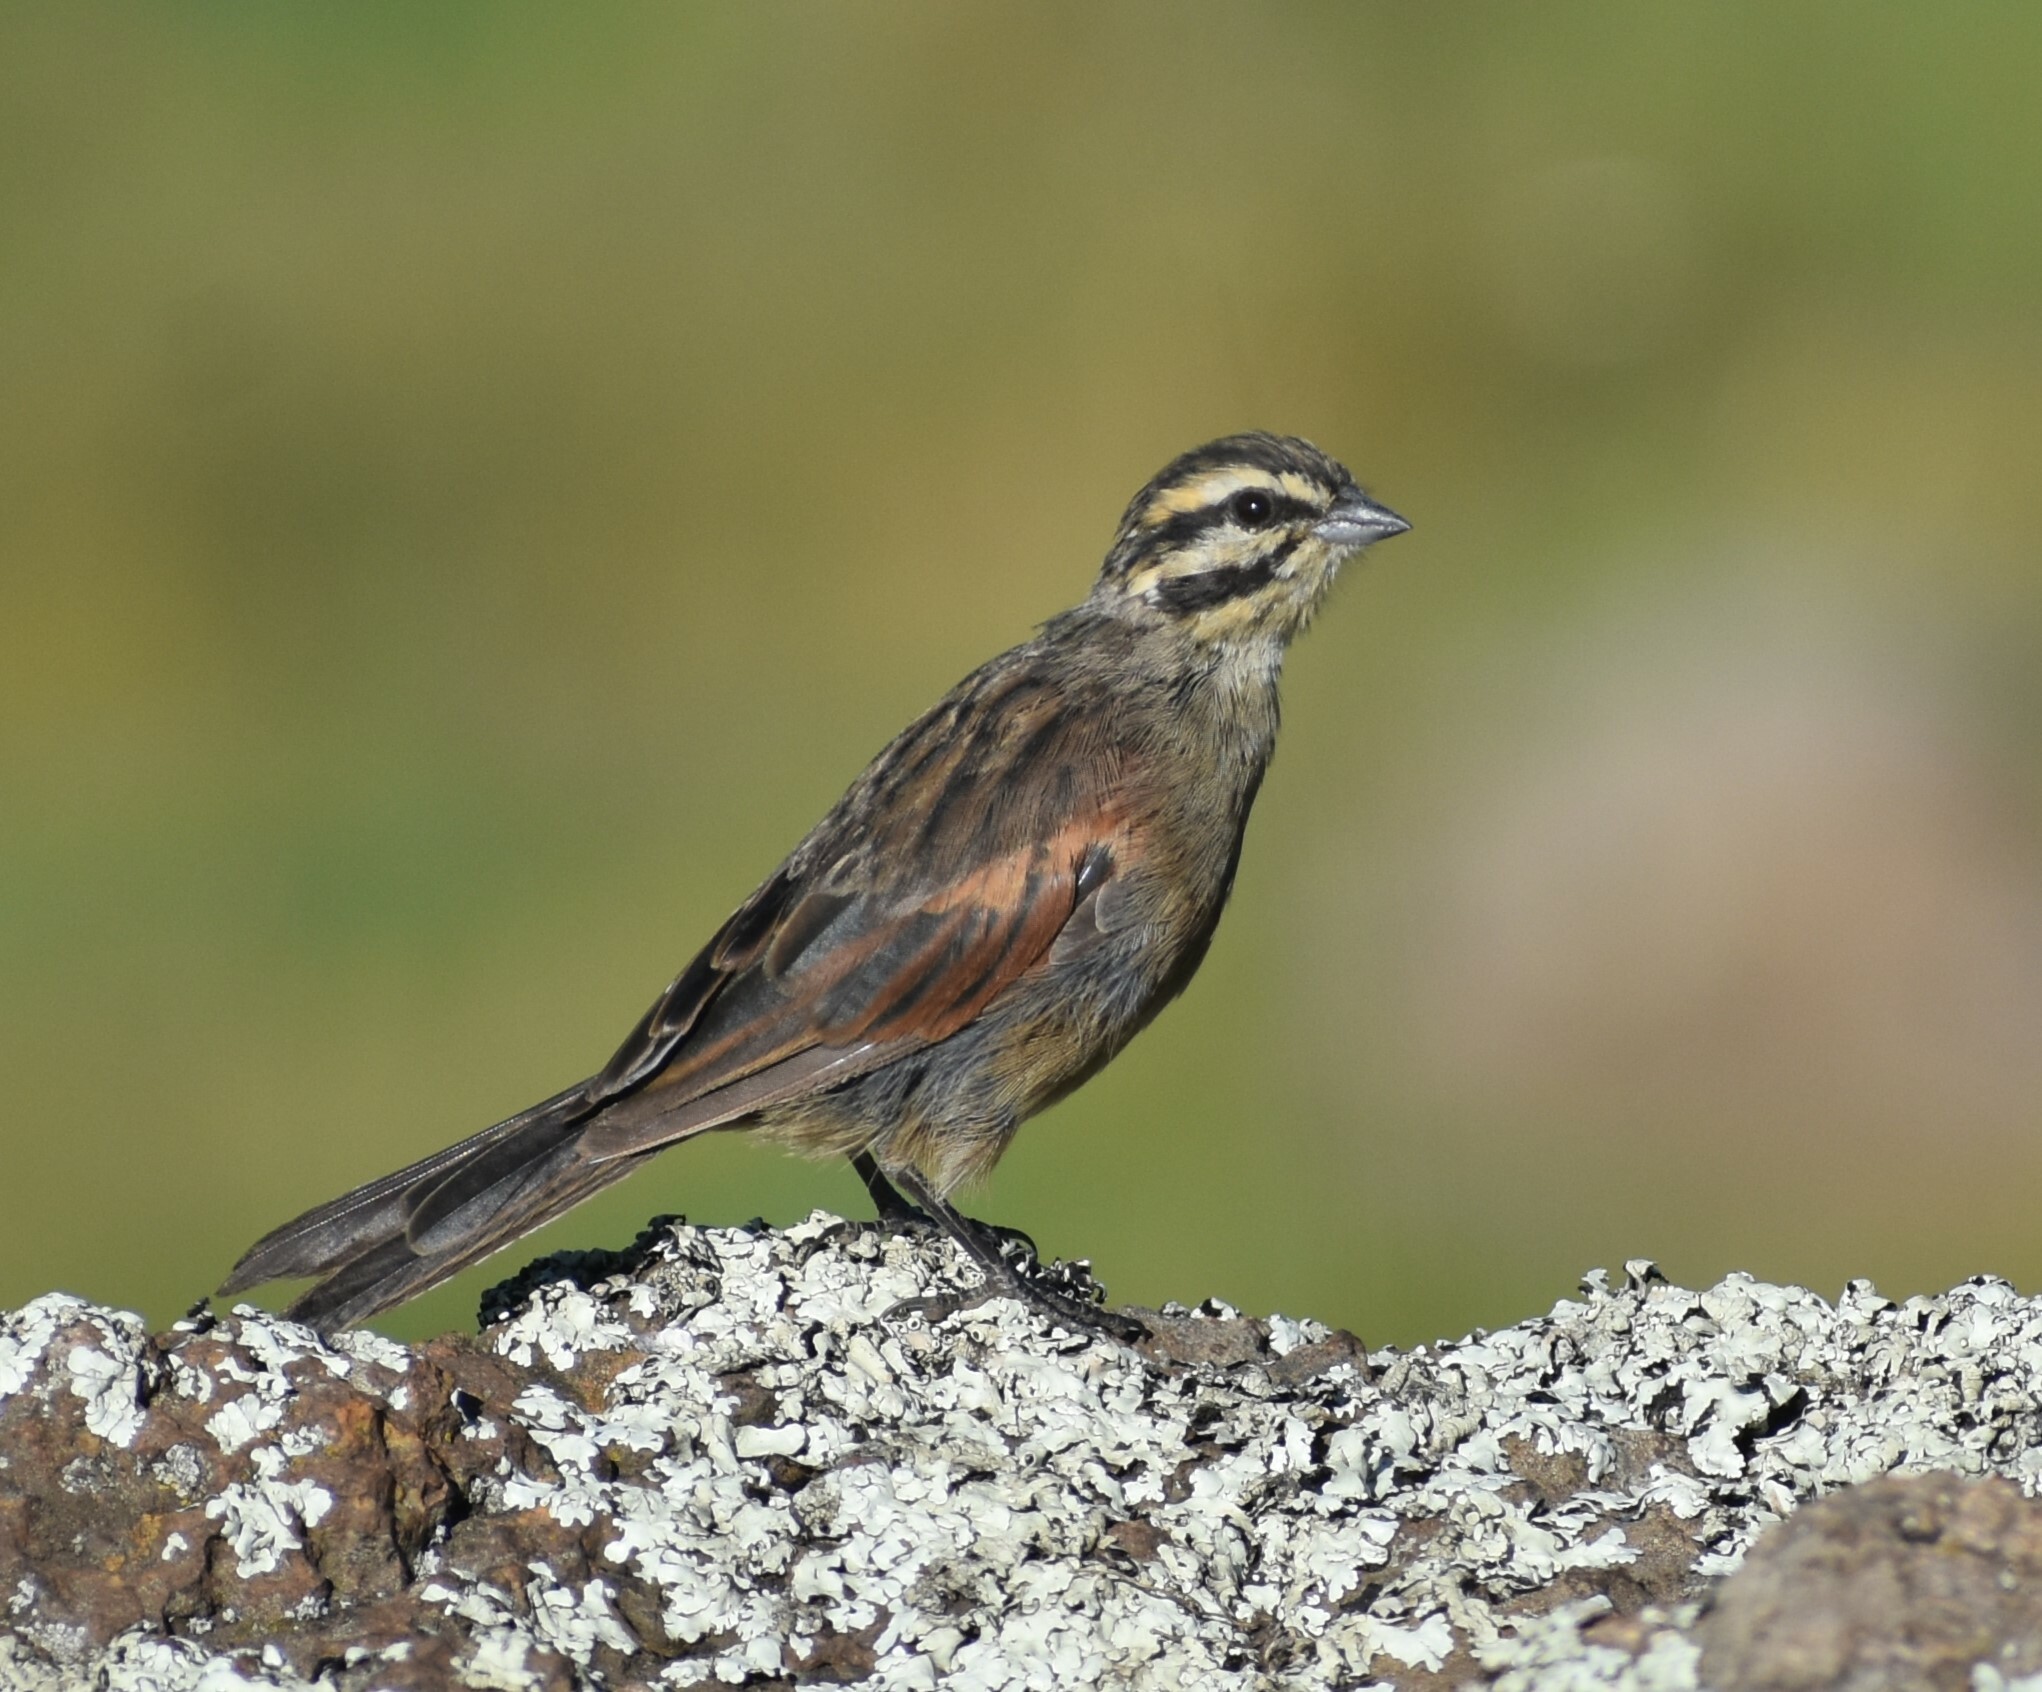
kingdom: Animalia
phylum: Chordata
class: Aves
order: Passeriformes
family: Emberizidae
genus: Emberiza
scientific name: Emberiza capensis
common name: Cape bunting
